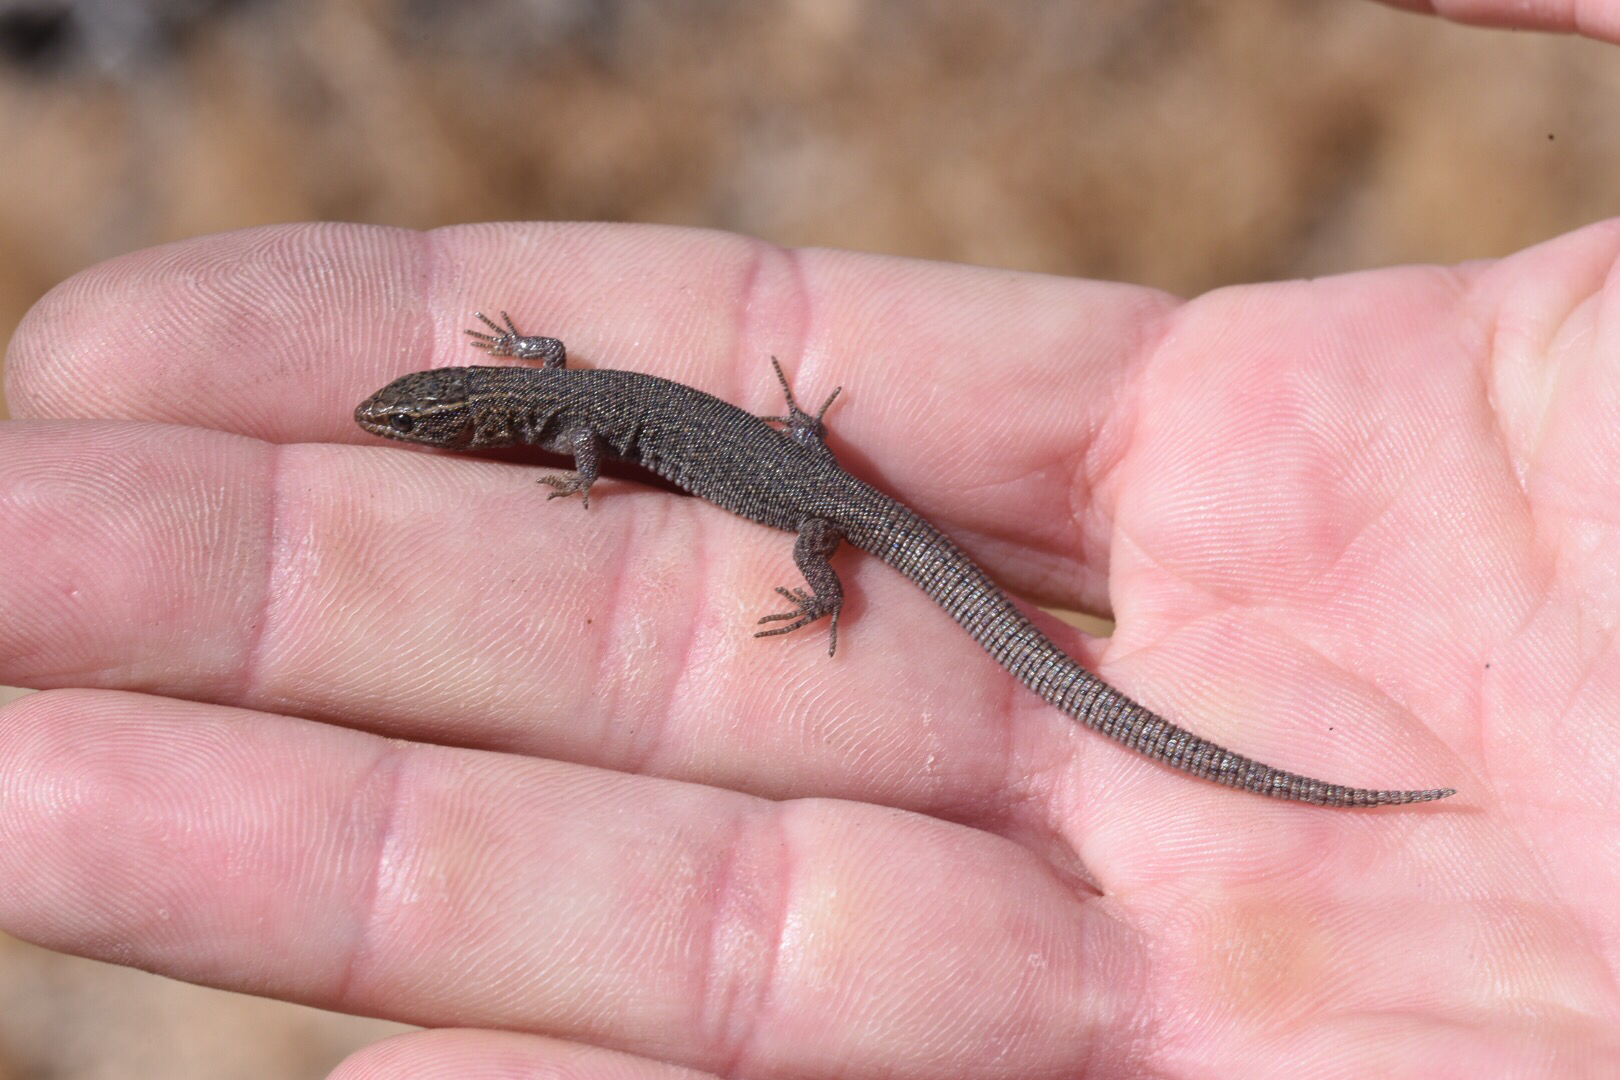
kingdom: Animalia
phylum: Chordata
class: Squamata
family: Xantusiidae
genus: Xantusia
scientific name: Xantusia vigilis
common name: Desert night lizard
